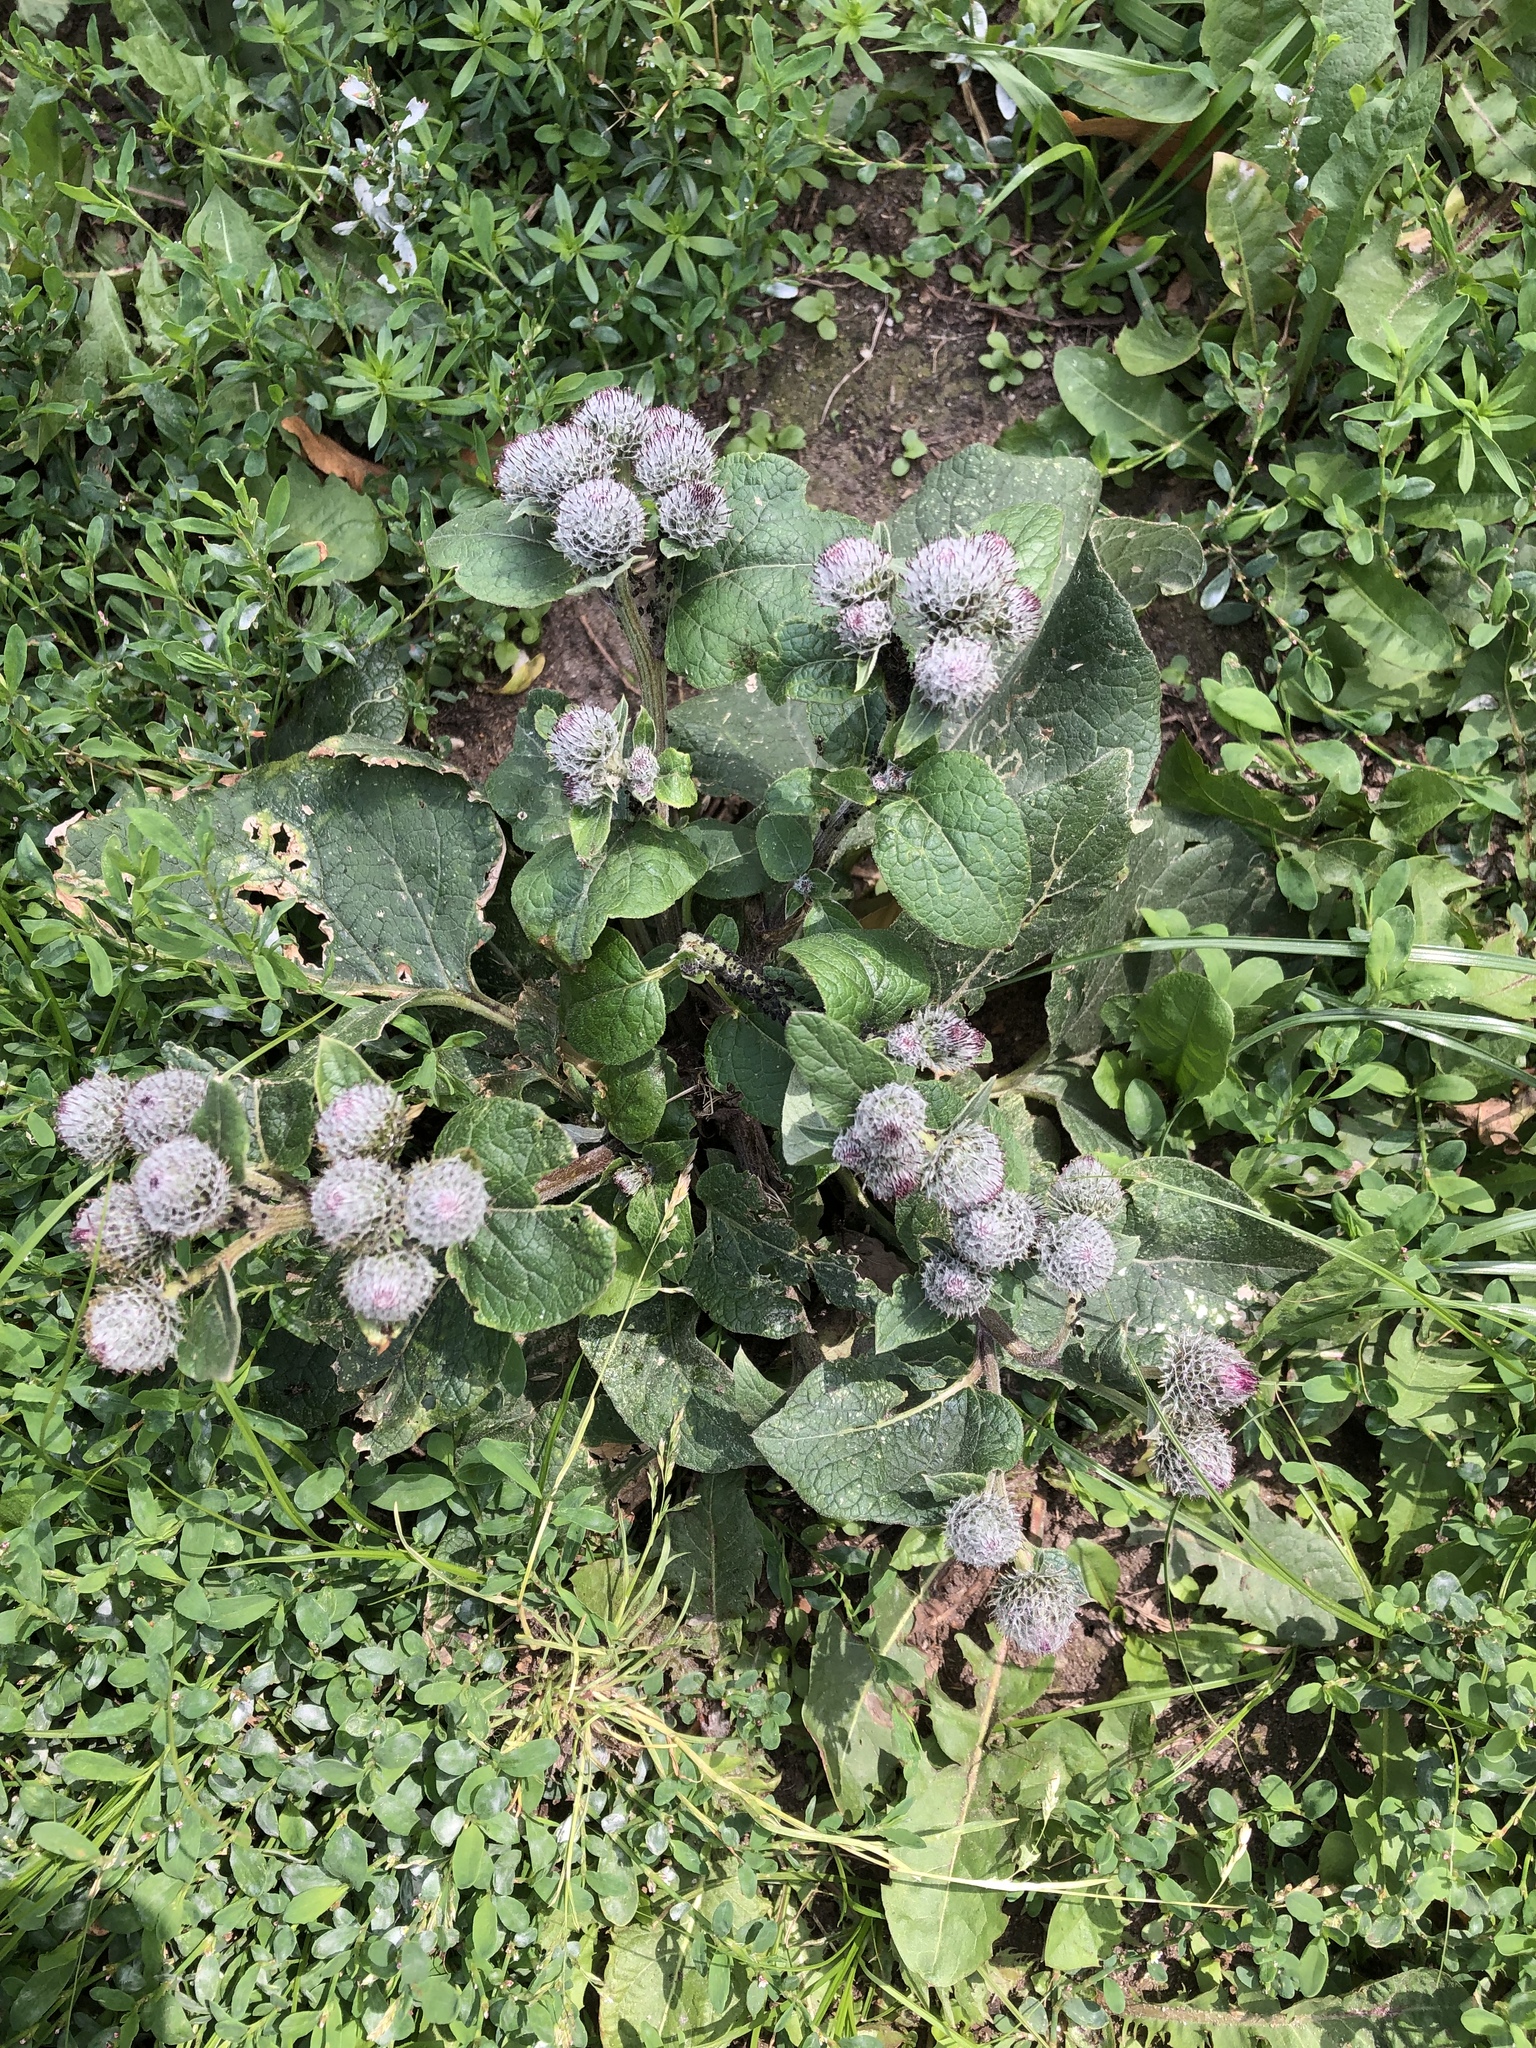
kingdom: Plantae
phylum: Tracheophyta
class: Magnoliopsida
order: Asterales
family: Asteraceae
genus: Arctium
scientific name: Arctium tomentosum
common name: Woolly burdock
